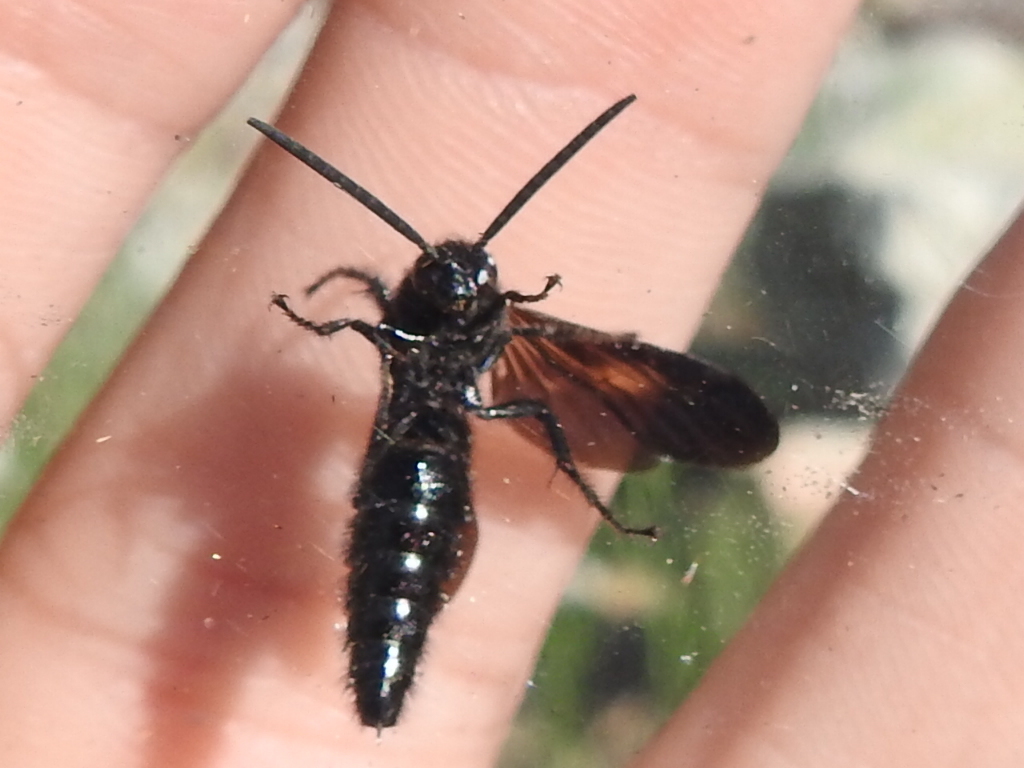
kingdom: Animalia
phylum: Arthropoda
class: Insecta
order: Hymenoptera
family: Scoliidae
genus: Scolia
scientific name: Scolia mexicana
